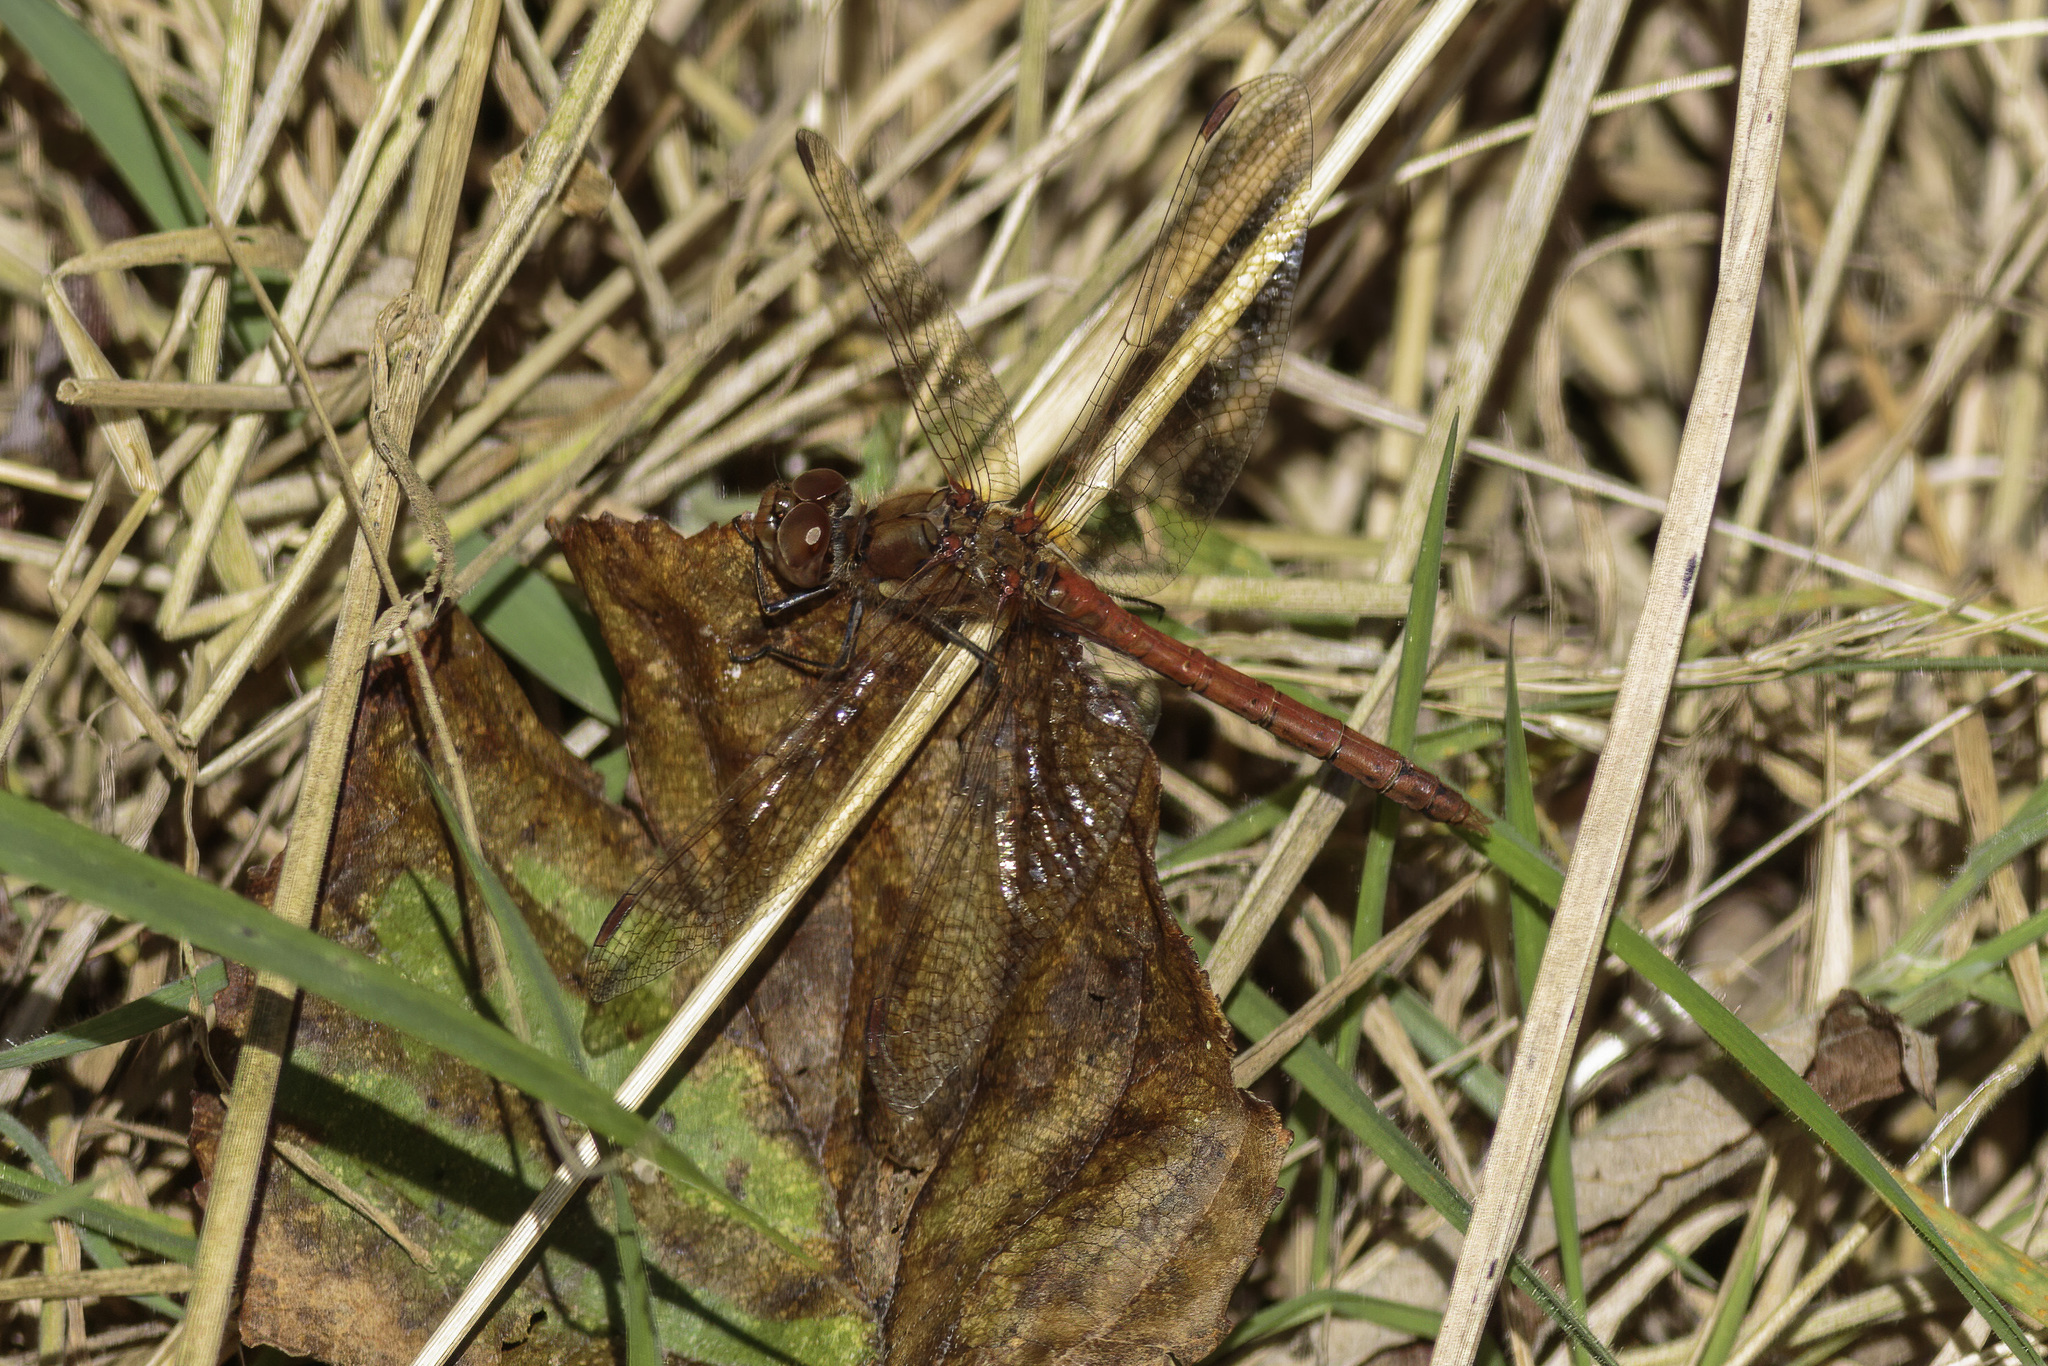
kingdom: Animalia
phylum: Arthropoda
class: Insecta
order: Odonata
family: Libellulidae
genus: Sympetrum
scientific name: Sympetrum striolatum
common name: Common darter
